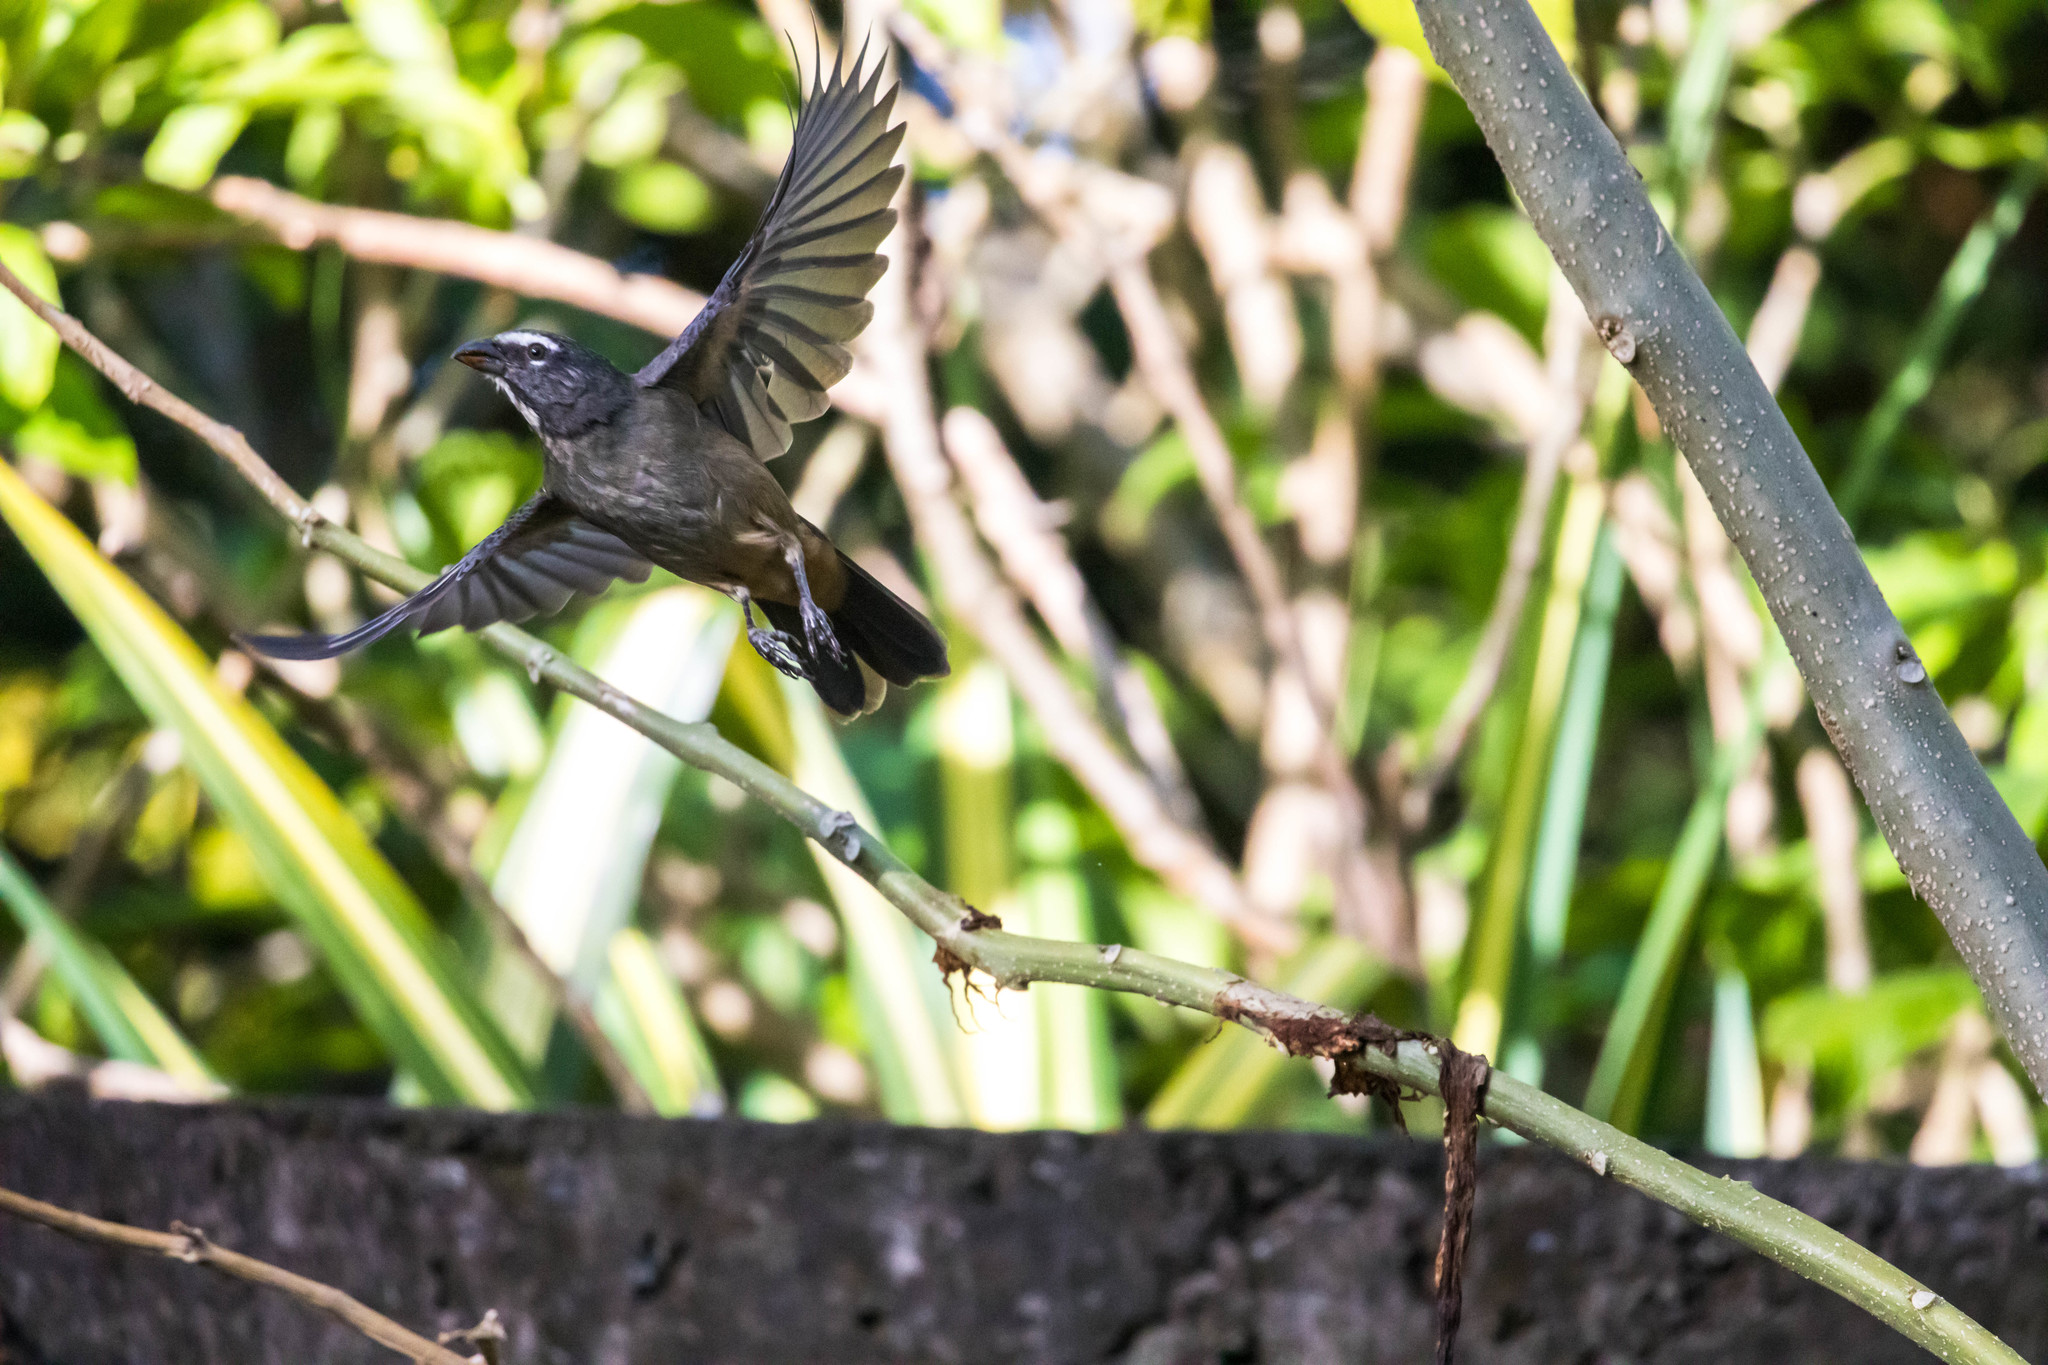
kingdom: Animalia
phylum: Chordata
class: Aves
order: Passeriformes
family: Thraupidae
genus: Saltator
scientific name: Saltator grandis
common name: Cinnamon-bellied saltator
